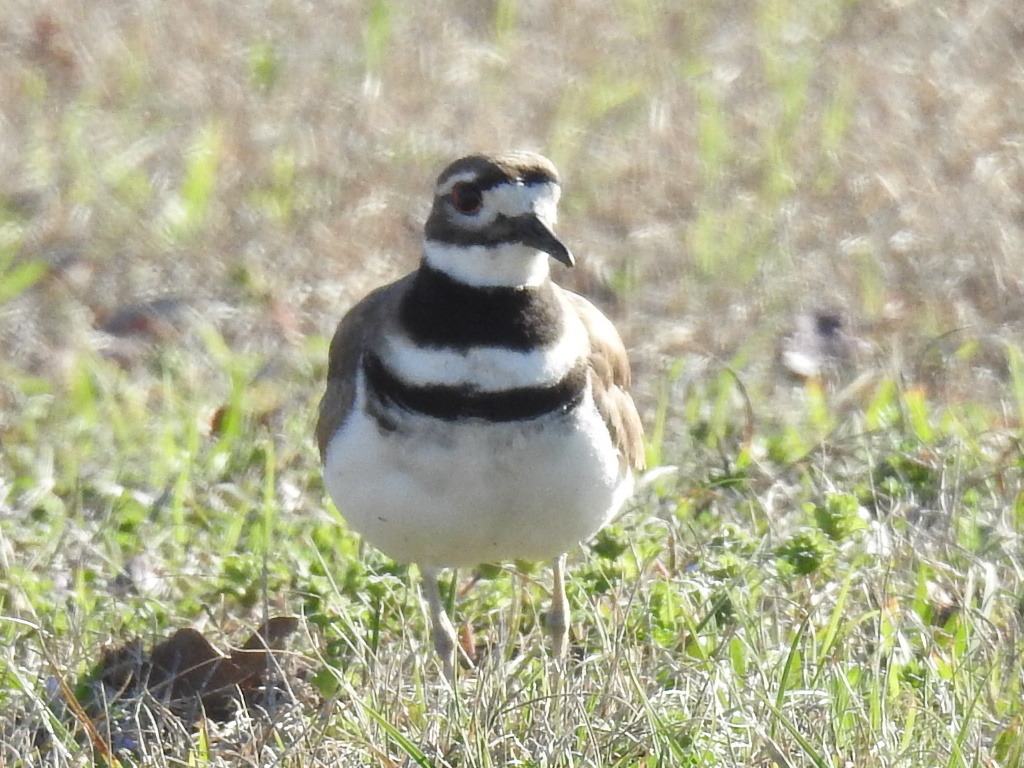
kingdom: Animalia
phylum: Chordata
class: Aves
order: Charadriiformes
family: Charadriidae
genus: Charadrius
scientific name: Charadrius vociferus
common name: Killdeer
